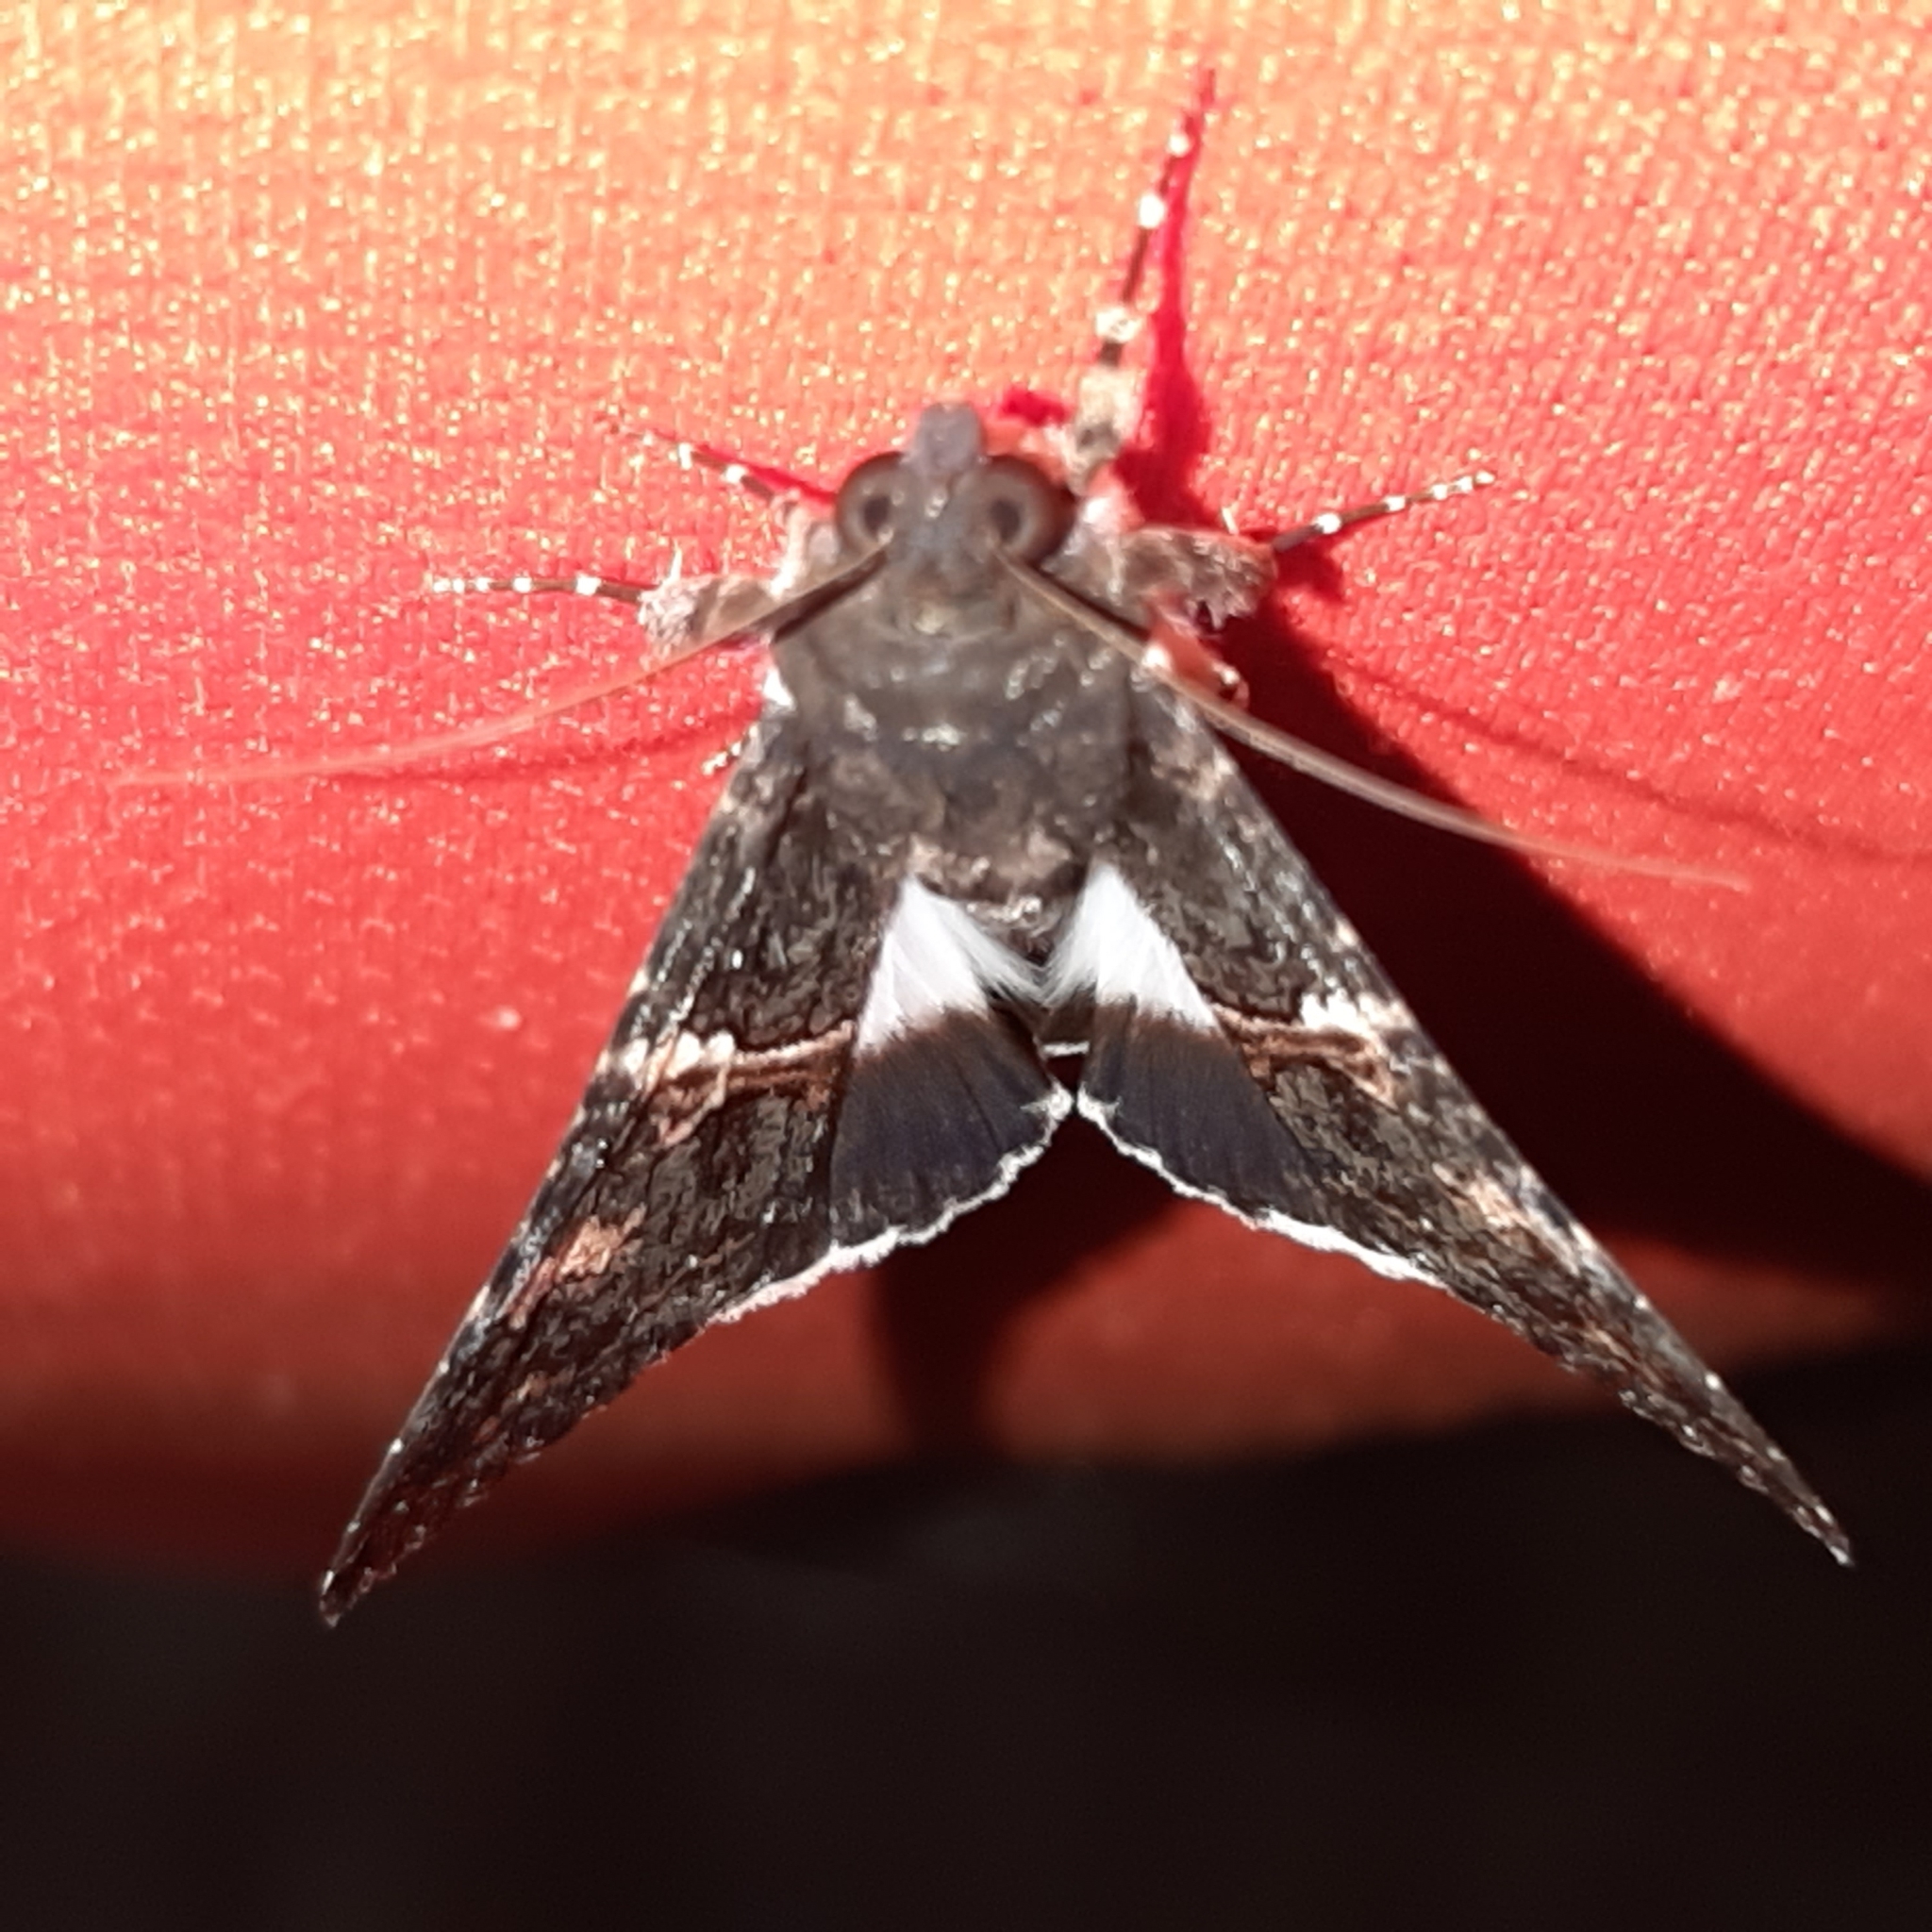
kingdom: Animalia
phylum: Arthropoda
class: Insecta
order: Lepidoptera
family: Erebidae
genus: Melipotis
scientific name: Melipotis punctifinis
